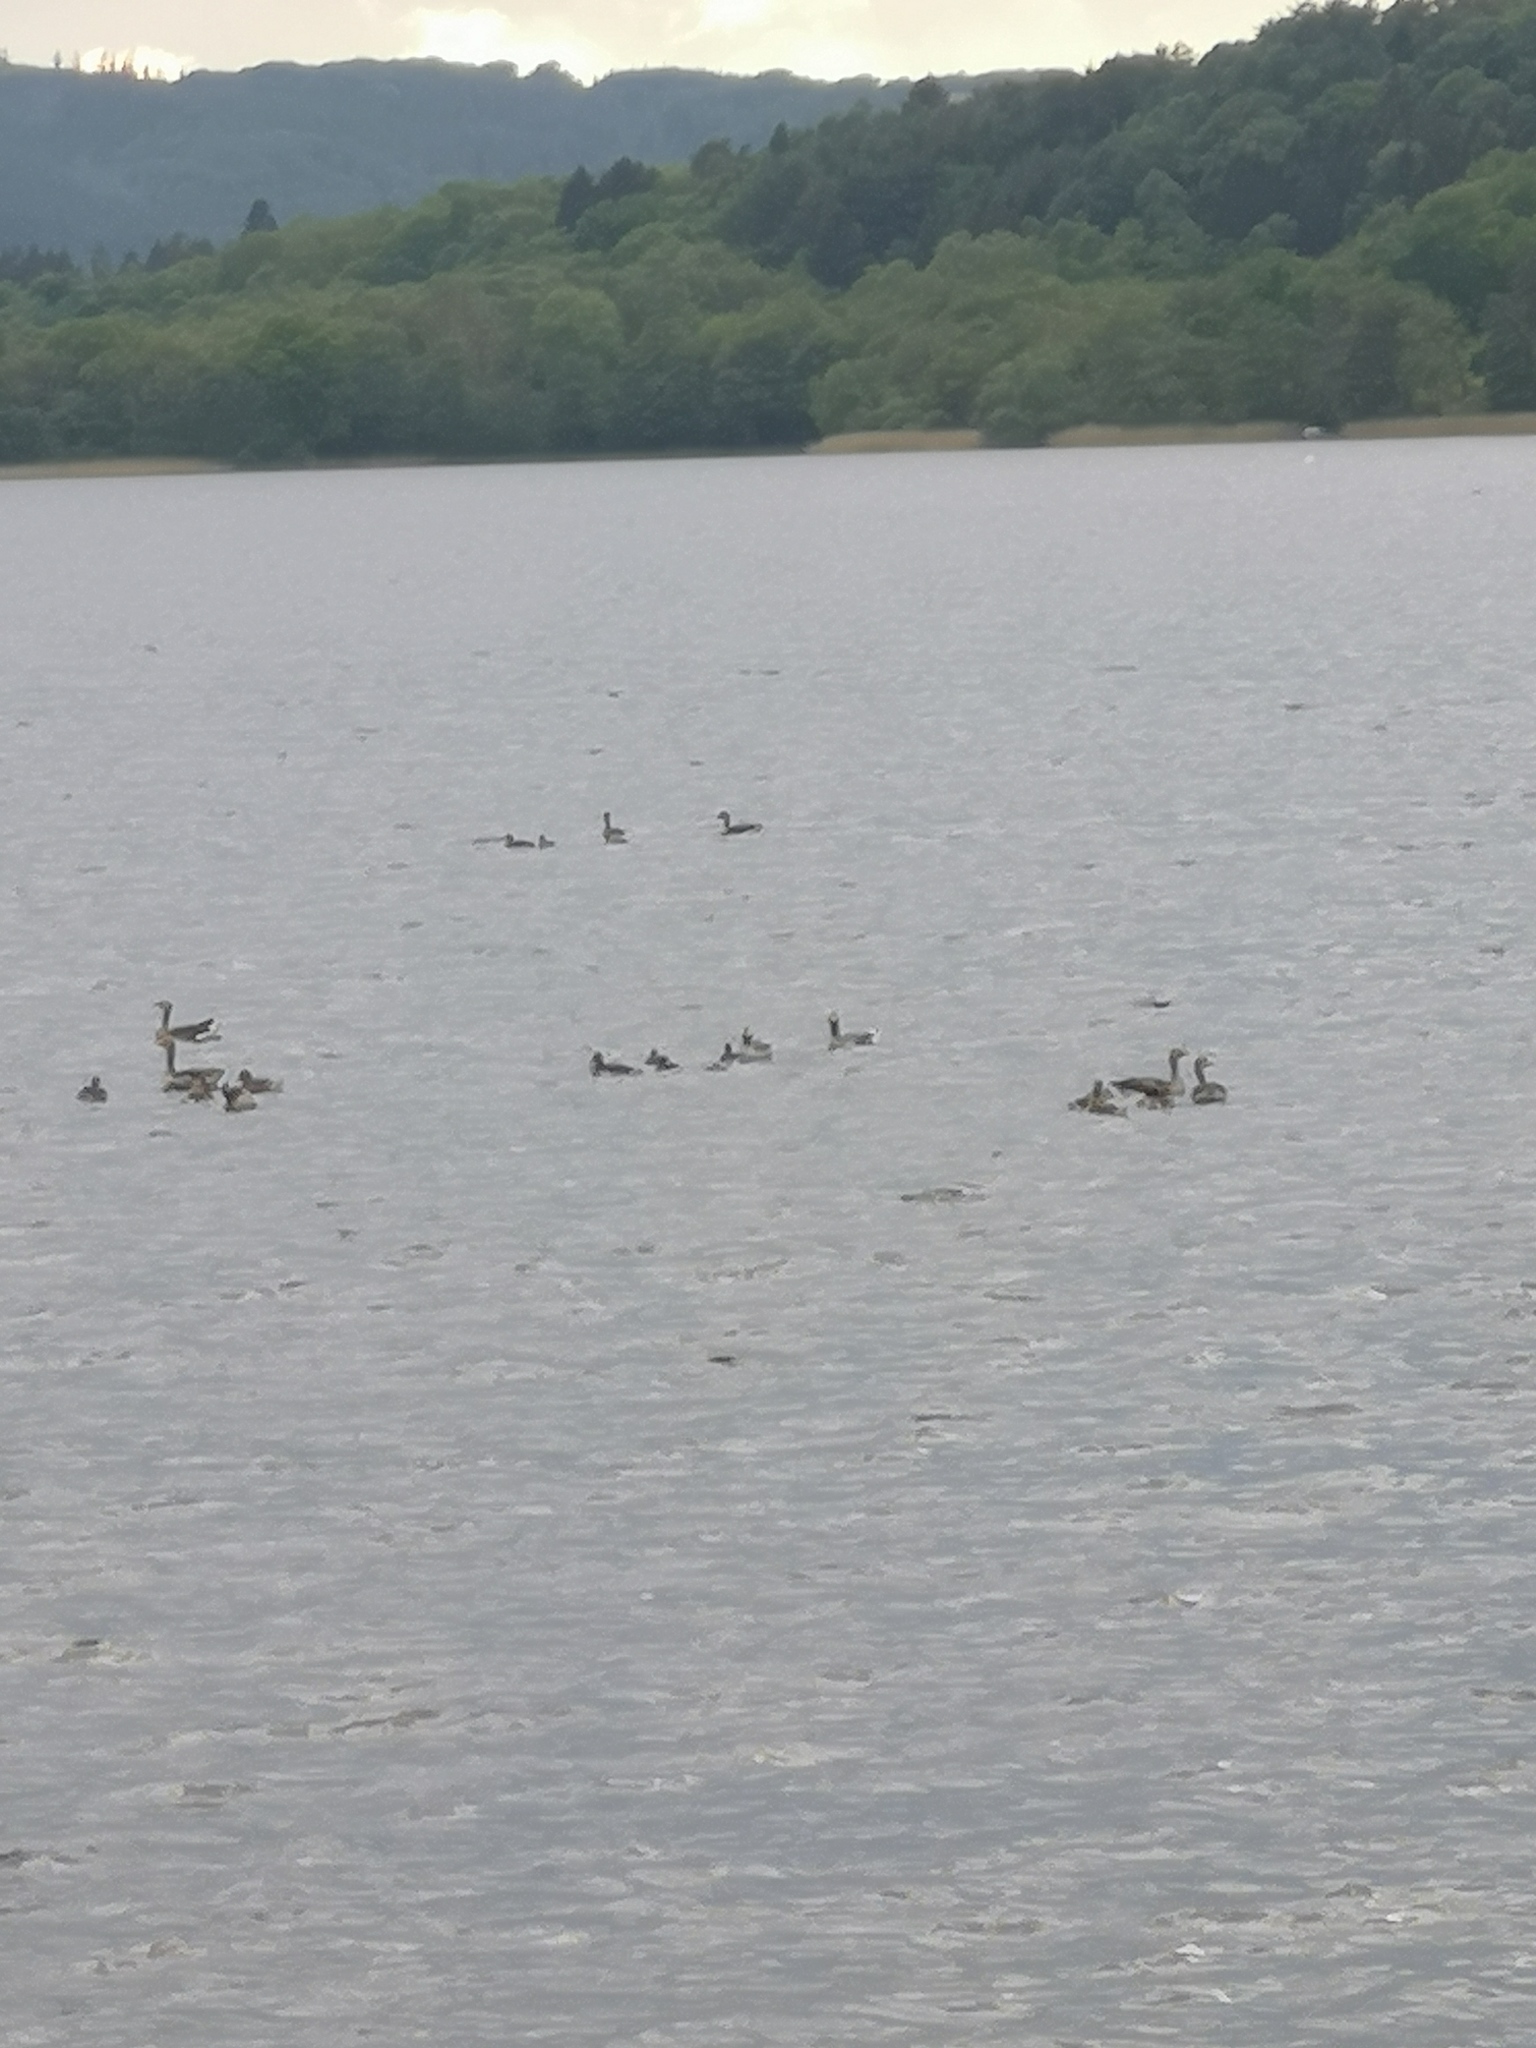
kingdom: Animalia
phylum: Chordata
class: Aves
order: Anseriformes
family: Anatidae
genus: Anser
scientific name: Anser anser
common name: Greylag goose
